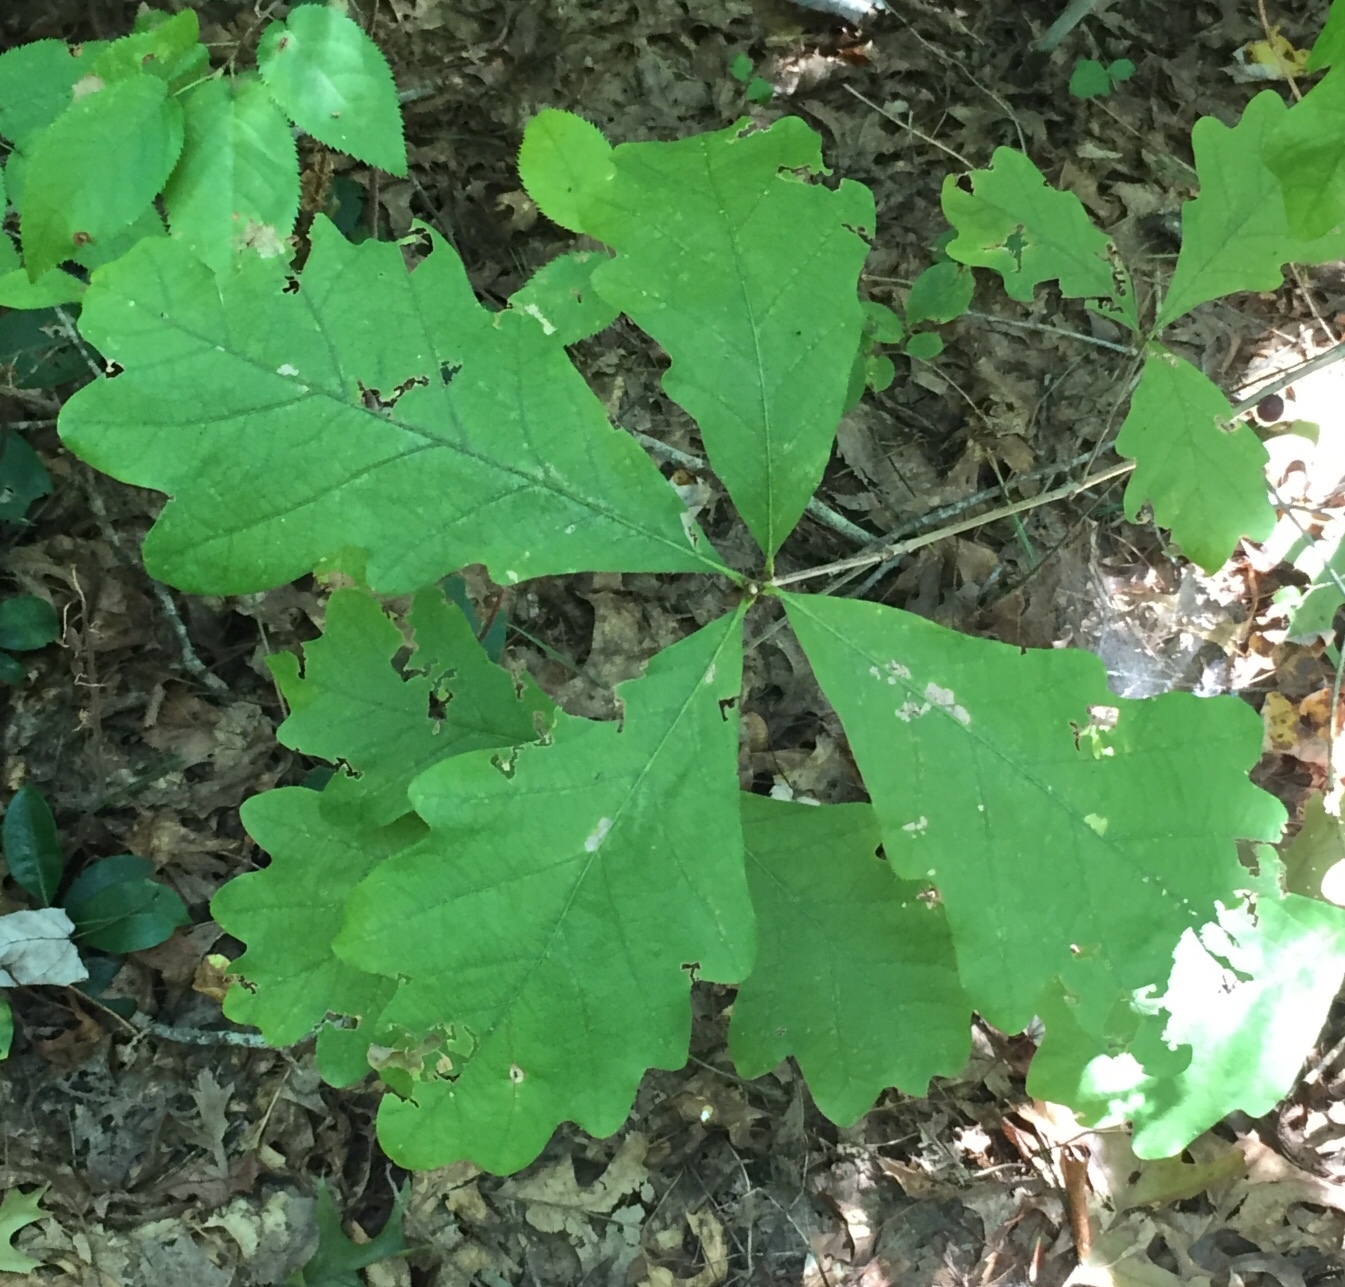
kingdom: Plantae
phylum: Tracheophyta
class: Magnoliopsida
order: Fagales
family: Fagaceae
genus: Quercus
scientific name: Quercus alba
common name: White oak
